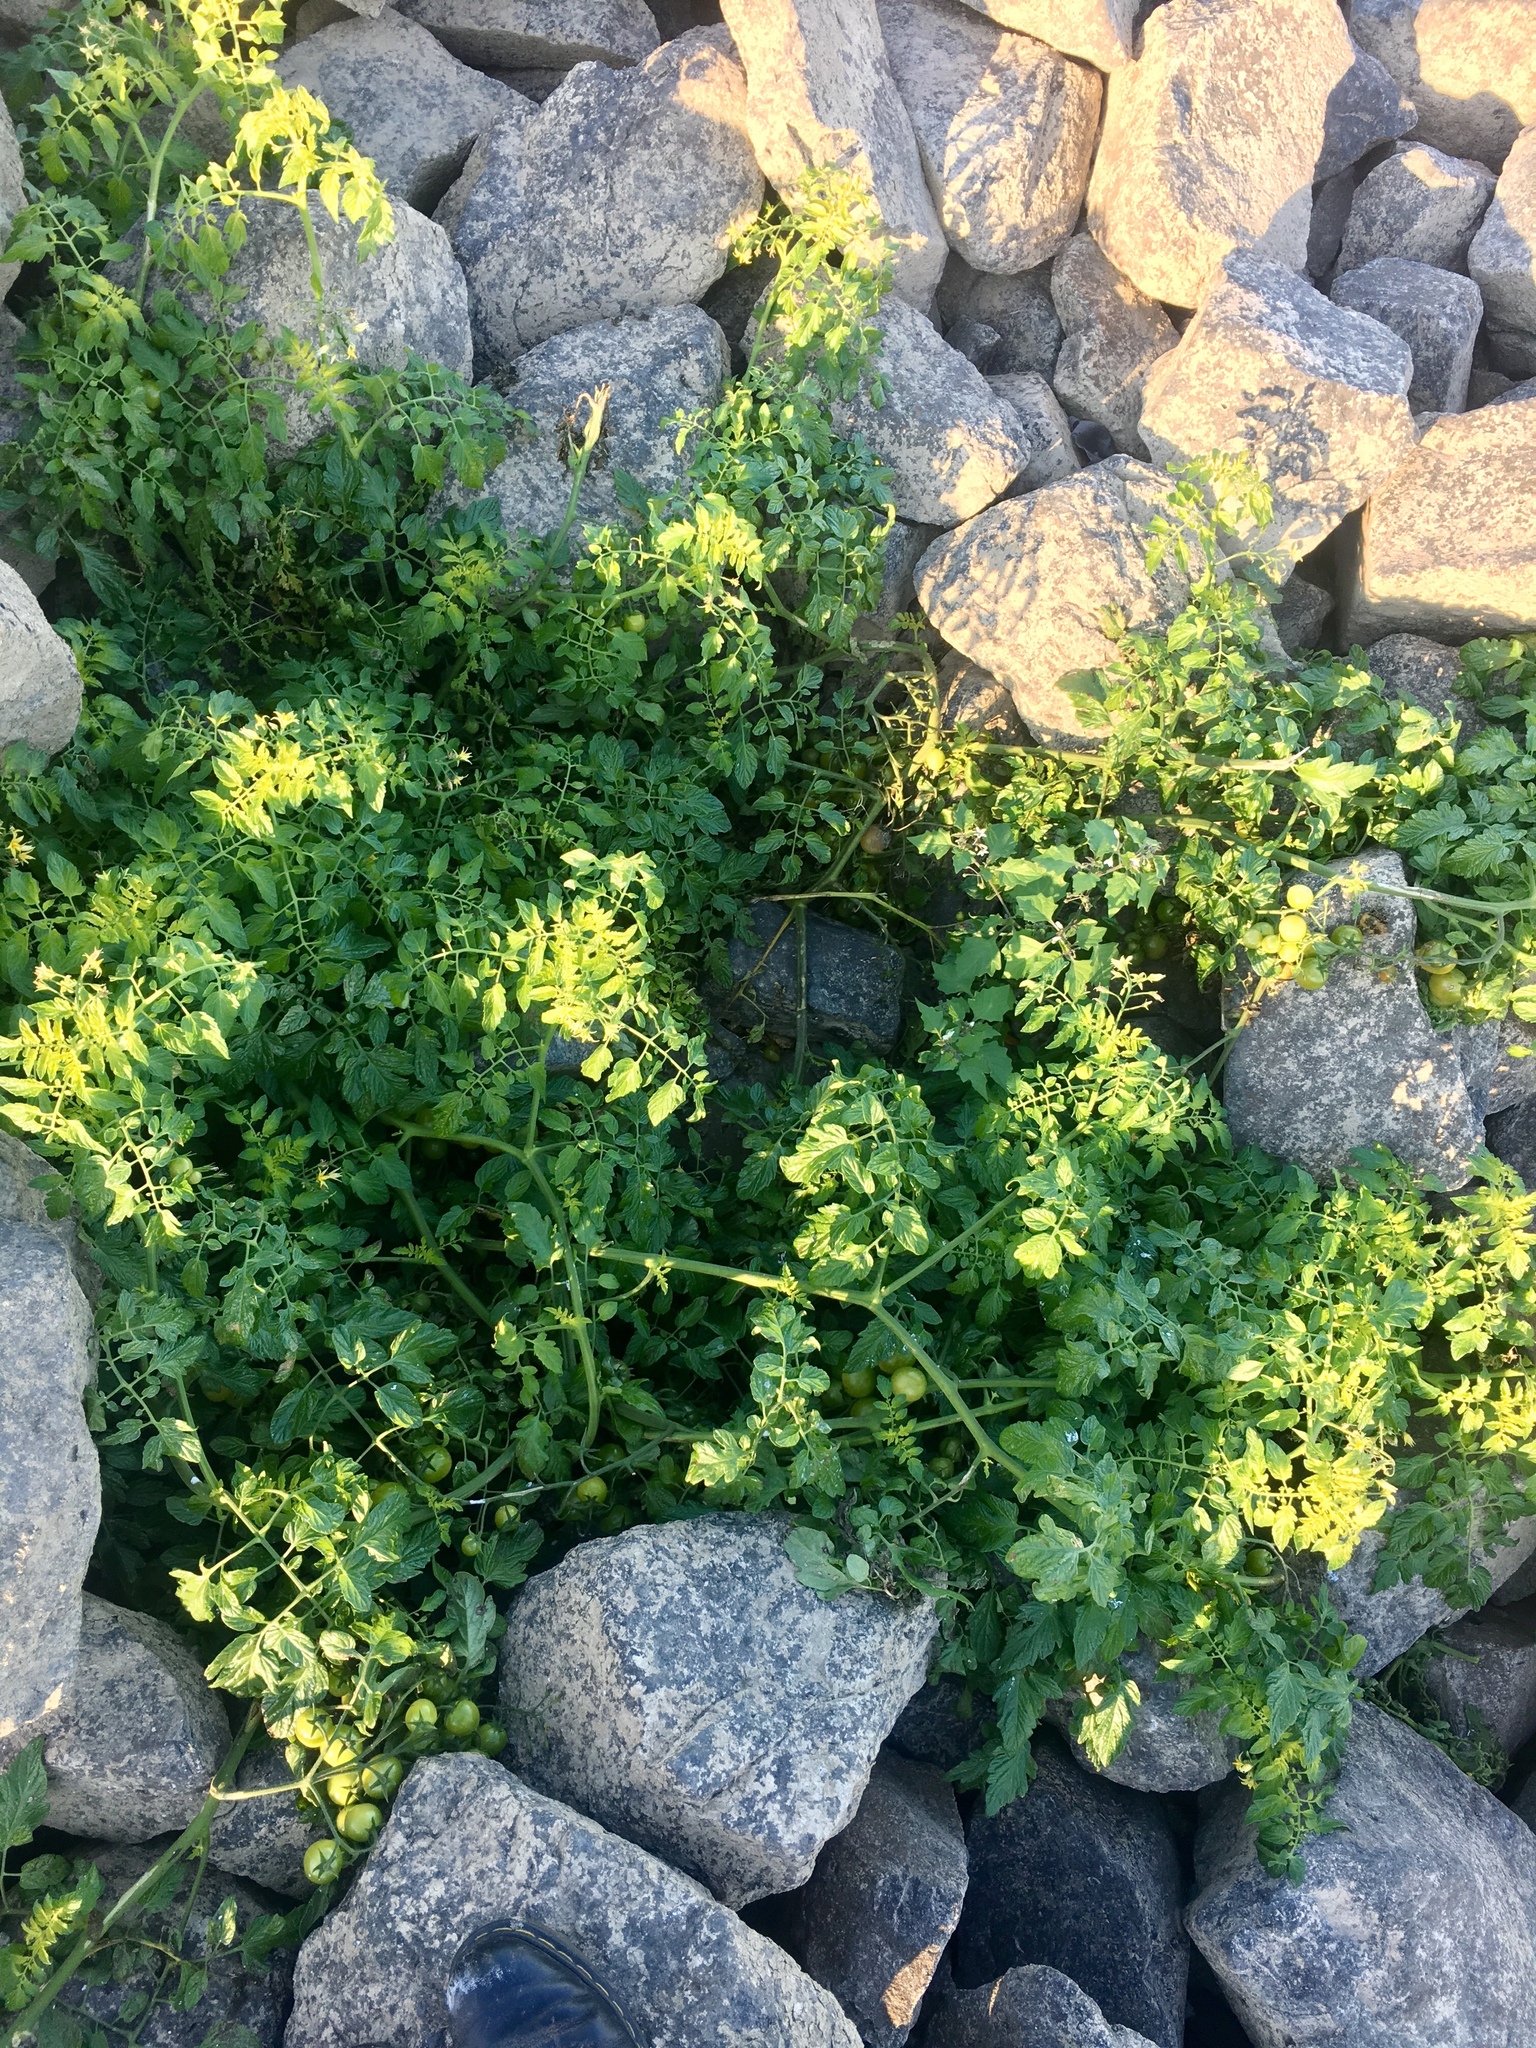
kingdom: Plantae
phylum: Tracheophyta
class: Magnoliopsida
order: Solanales
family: Solanaceae
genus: Solanum
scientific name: Solanum lycopersicum
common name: Garden tomato
